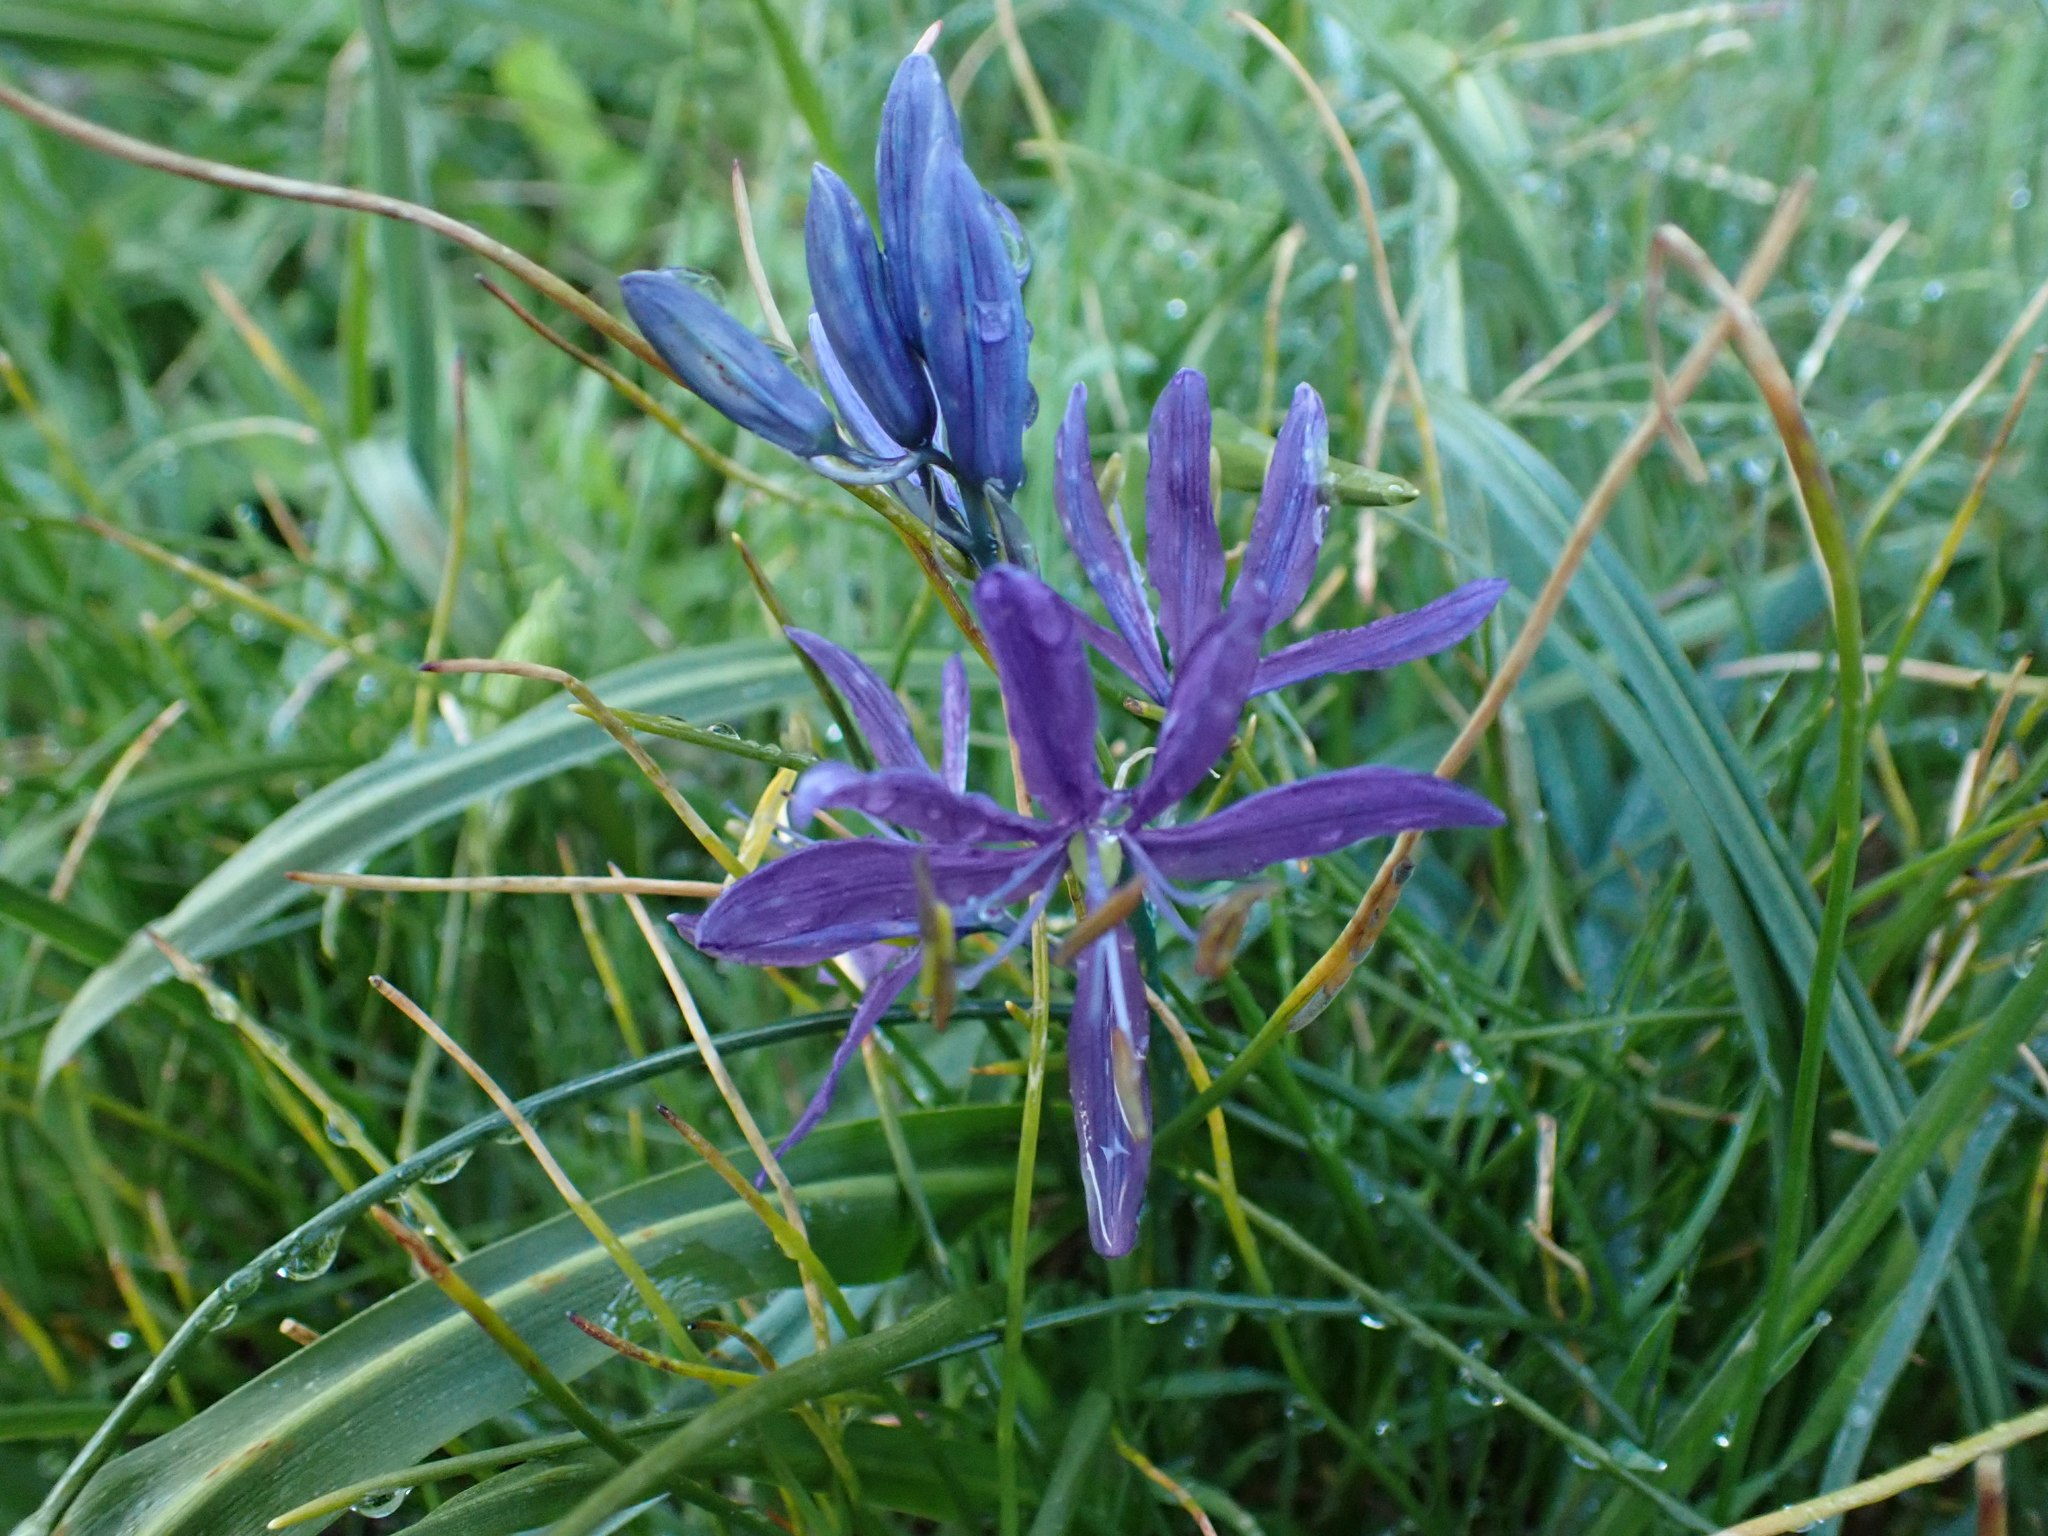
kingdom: Plantae
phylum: Tracheophyta
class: Liliopsida
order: Asparagales
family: Asparagaceae
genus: Camassia
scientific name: Camassia quamash
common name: Common camas
